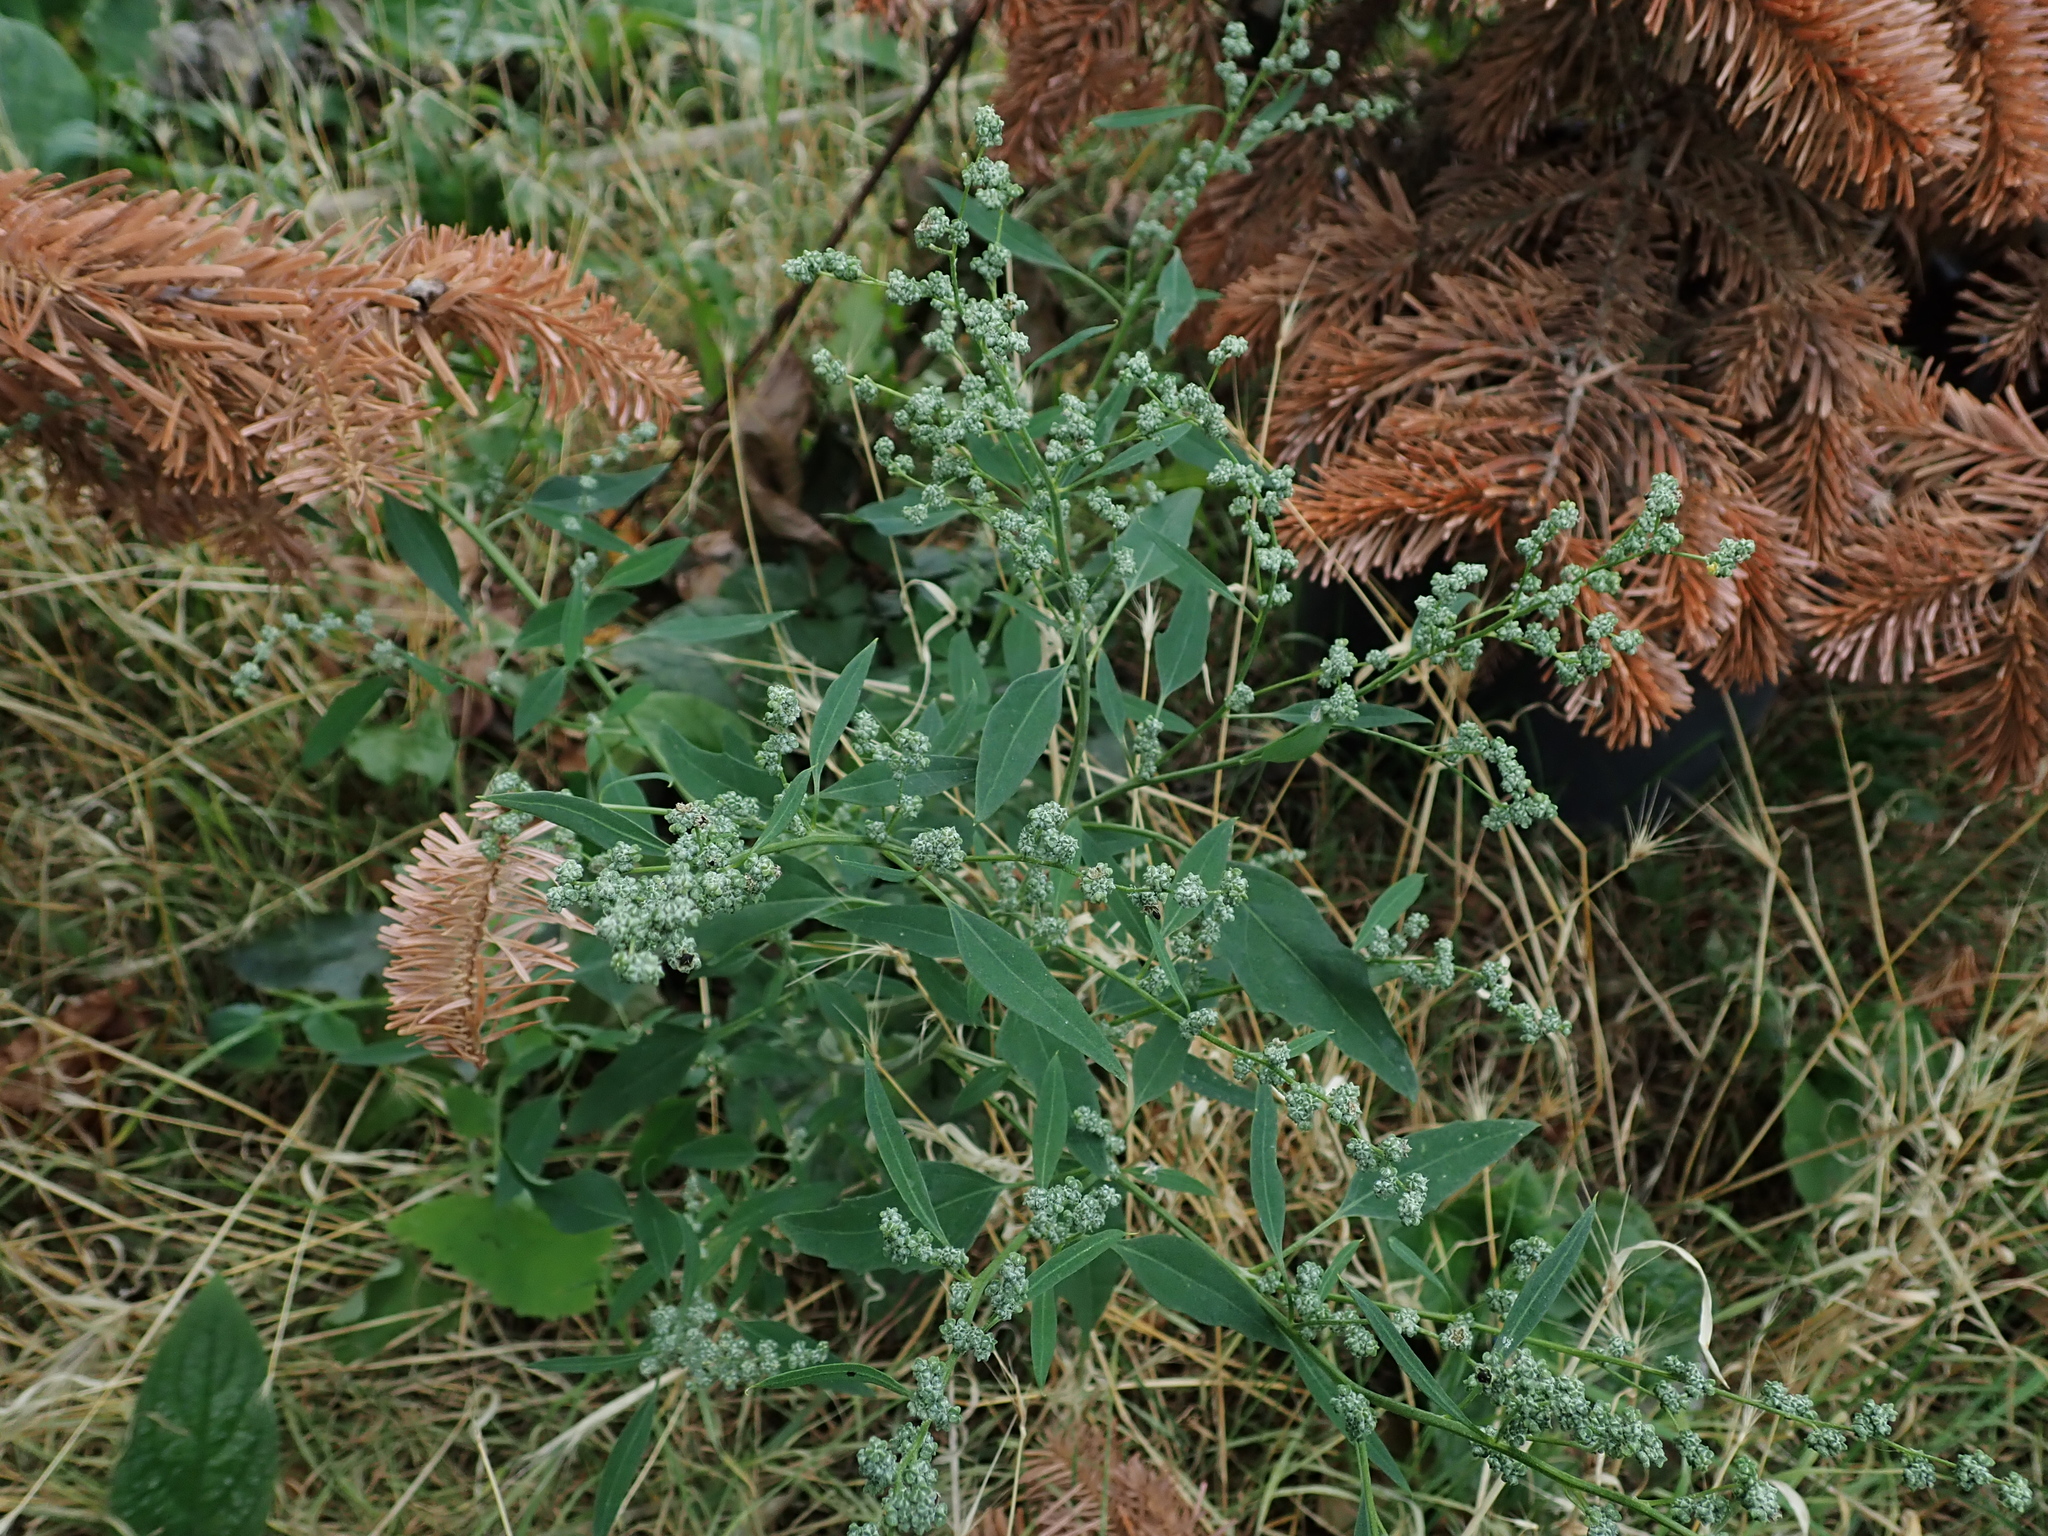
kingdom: Plantae
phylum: Tracheophyta
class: Magnoliopsida
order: Caryophyllales
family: Amaranthaceae
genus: Chenopodium
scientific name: Chenopodium album
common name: Fat-hen
